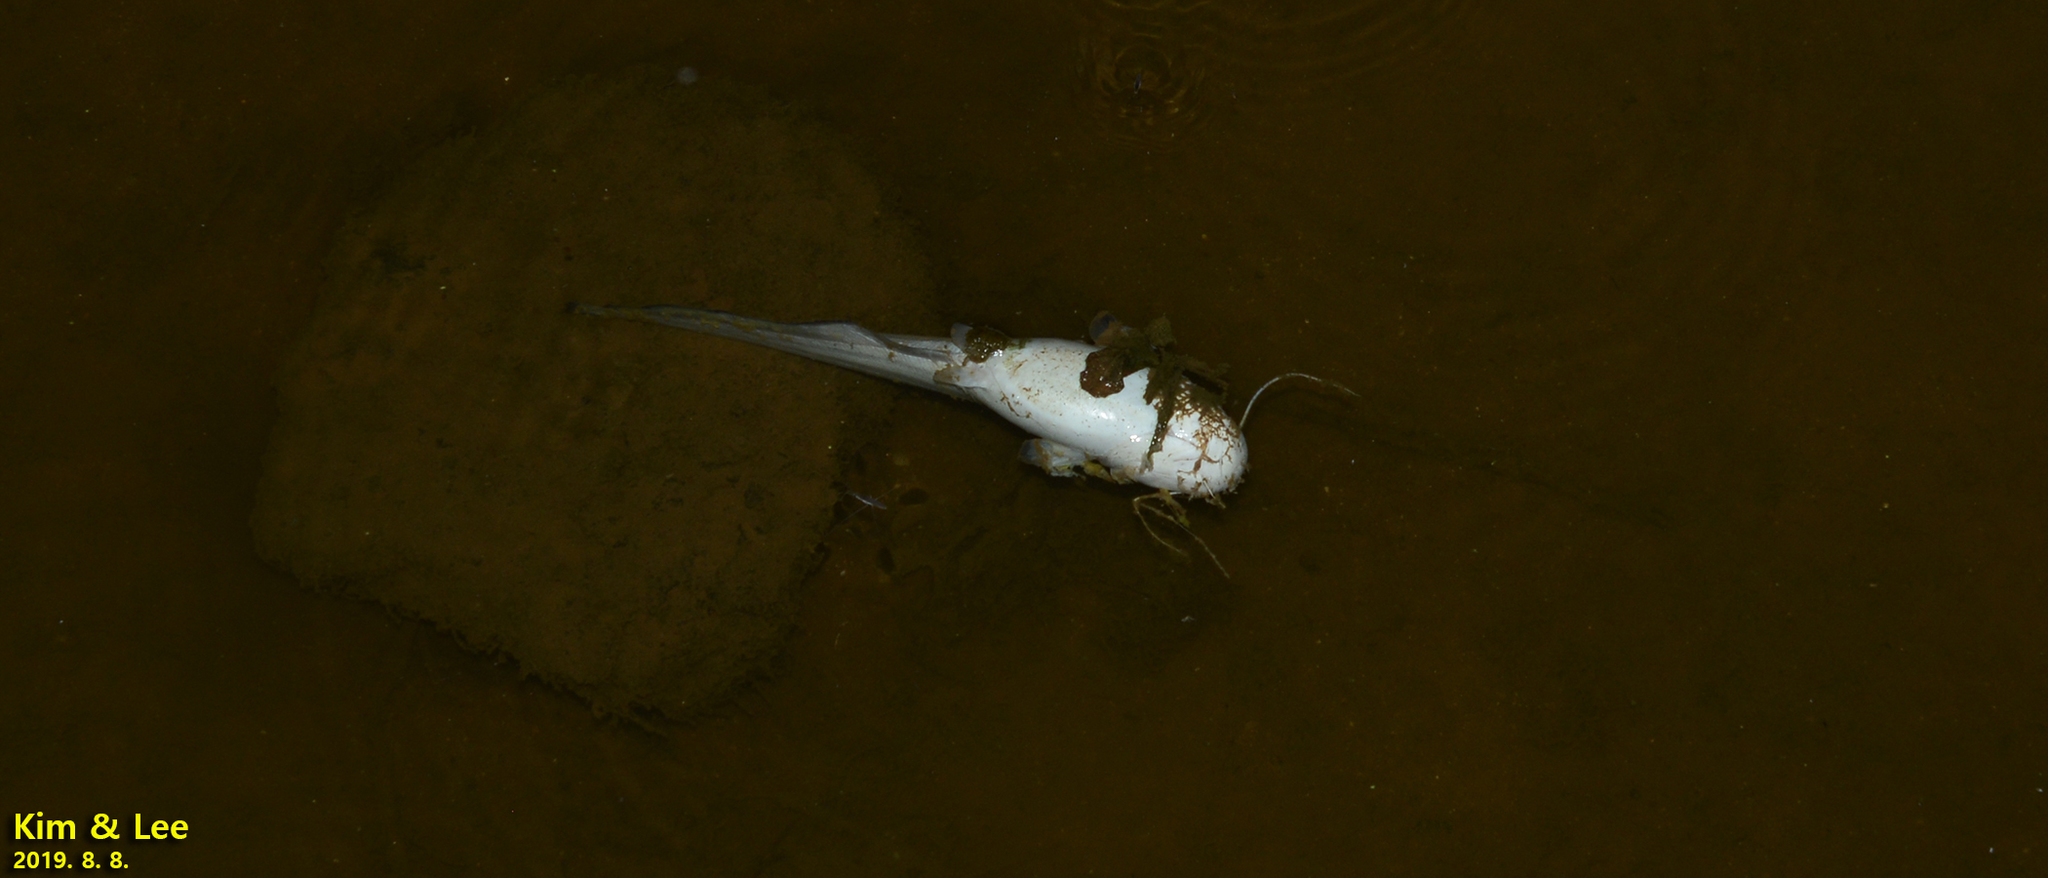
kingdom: Animalia
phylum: Chordata
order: Siluriformes
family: Siluridae
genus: Silurus
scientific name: Silurus asotus
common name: Amur catfish
